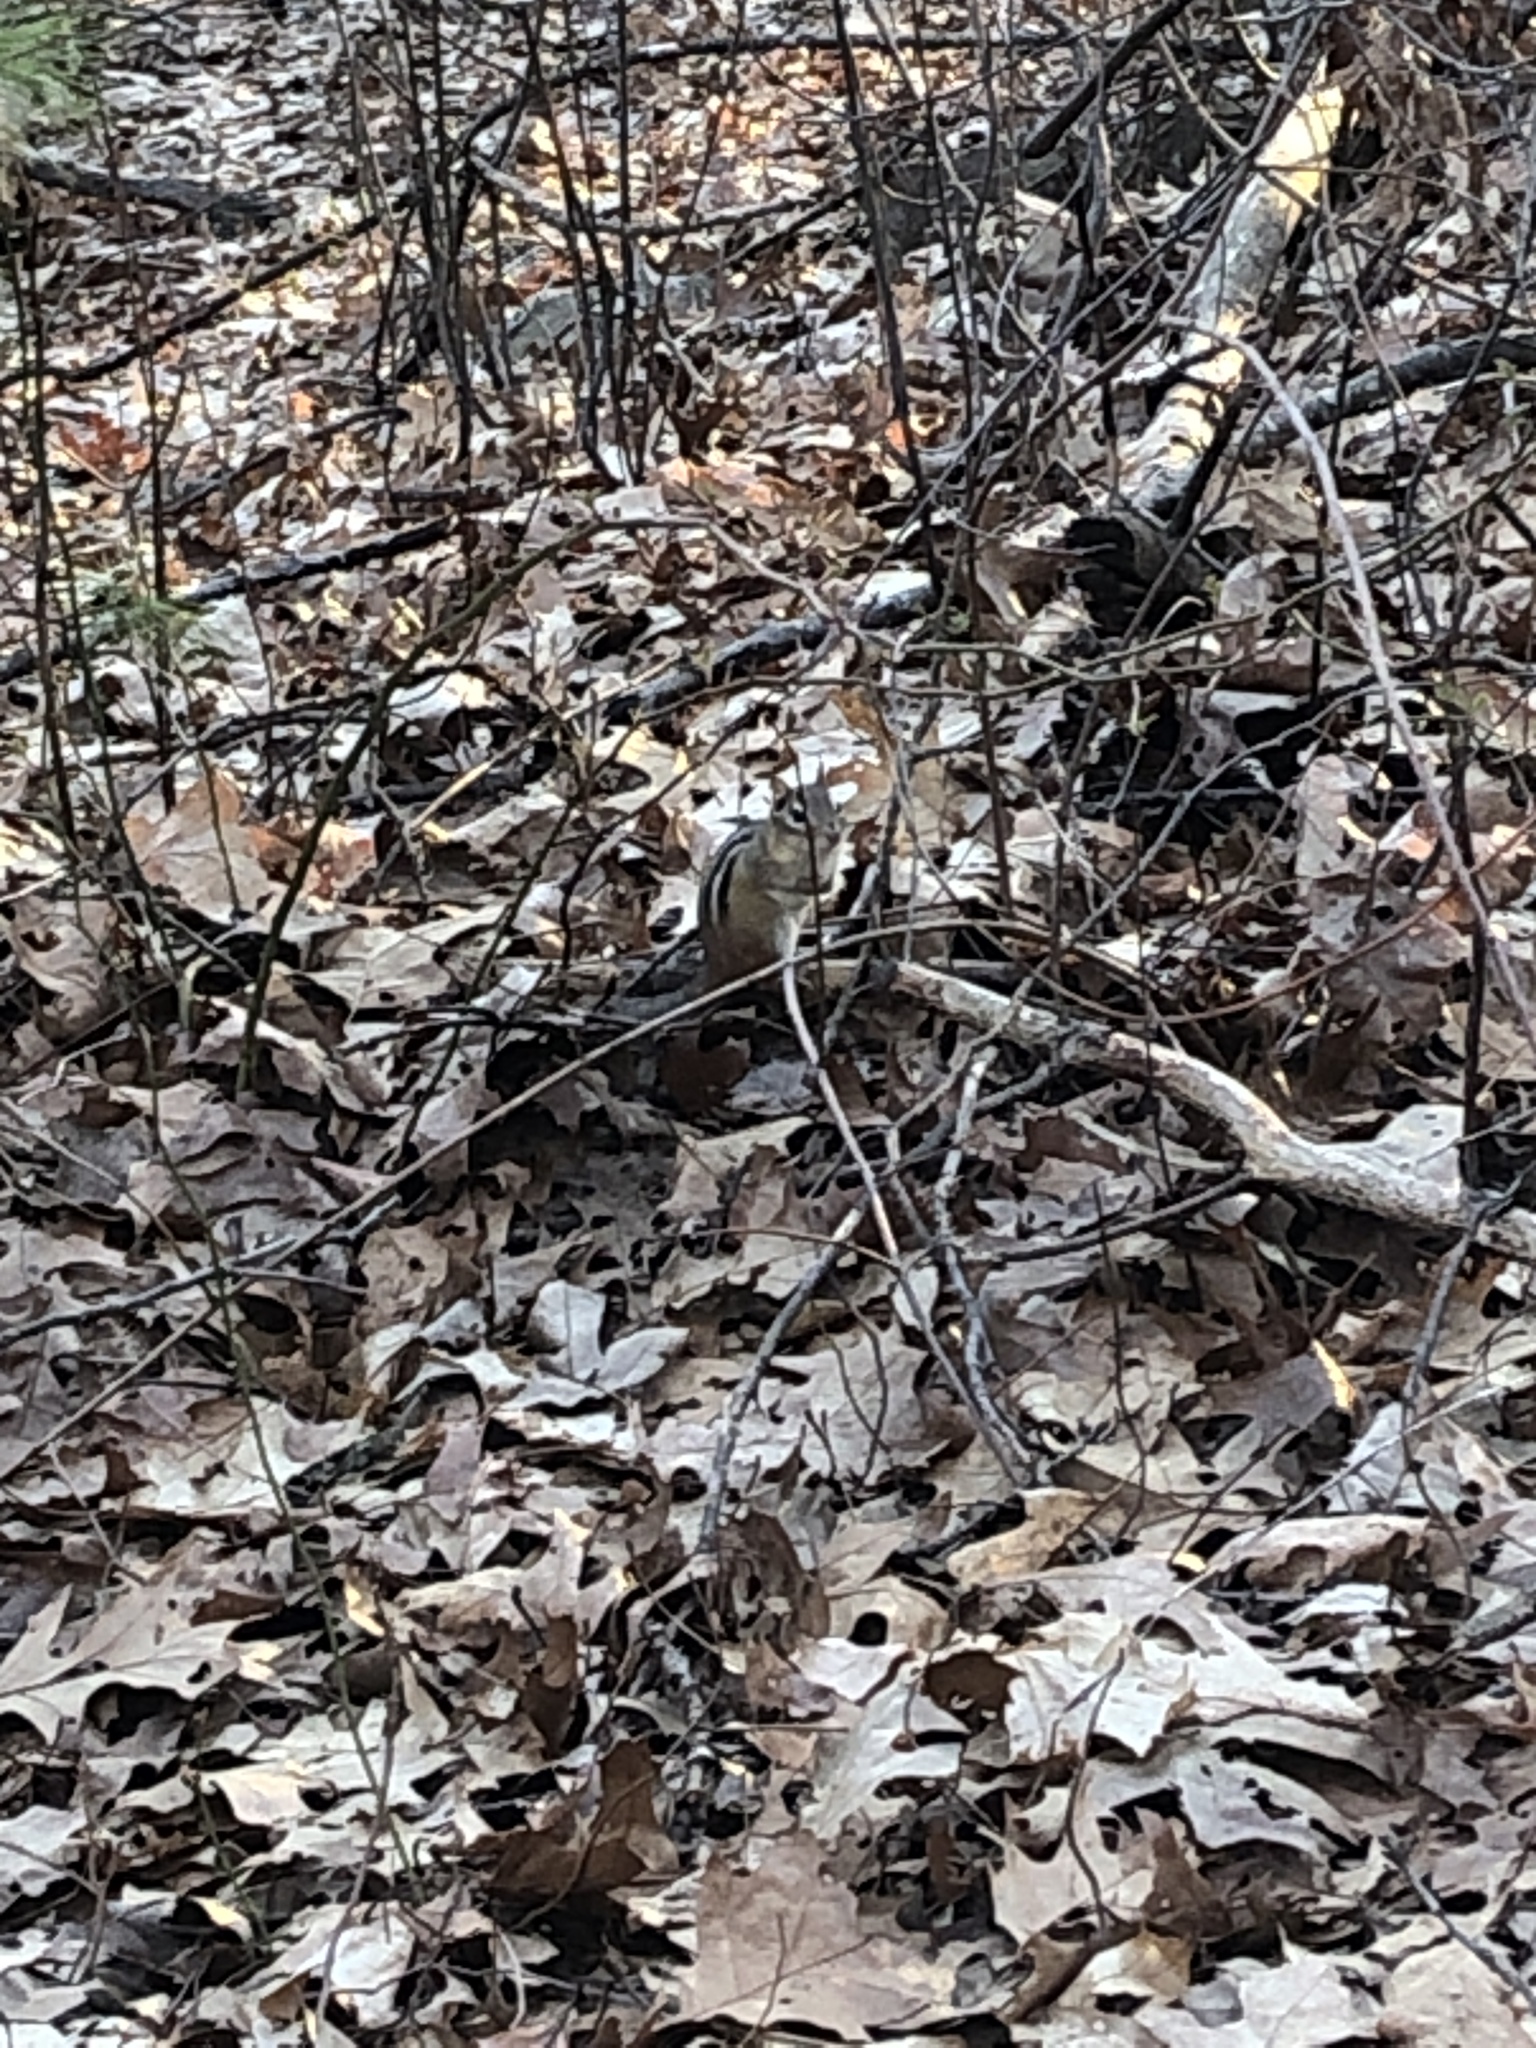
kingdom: Animalia
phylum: Chordata
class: Mammalia
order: Rodentia
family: Sciuridae
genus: Tamias
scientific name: Tamias striatus
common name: Eastern chipmunk
